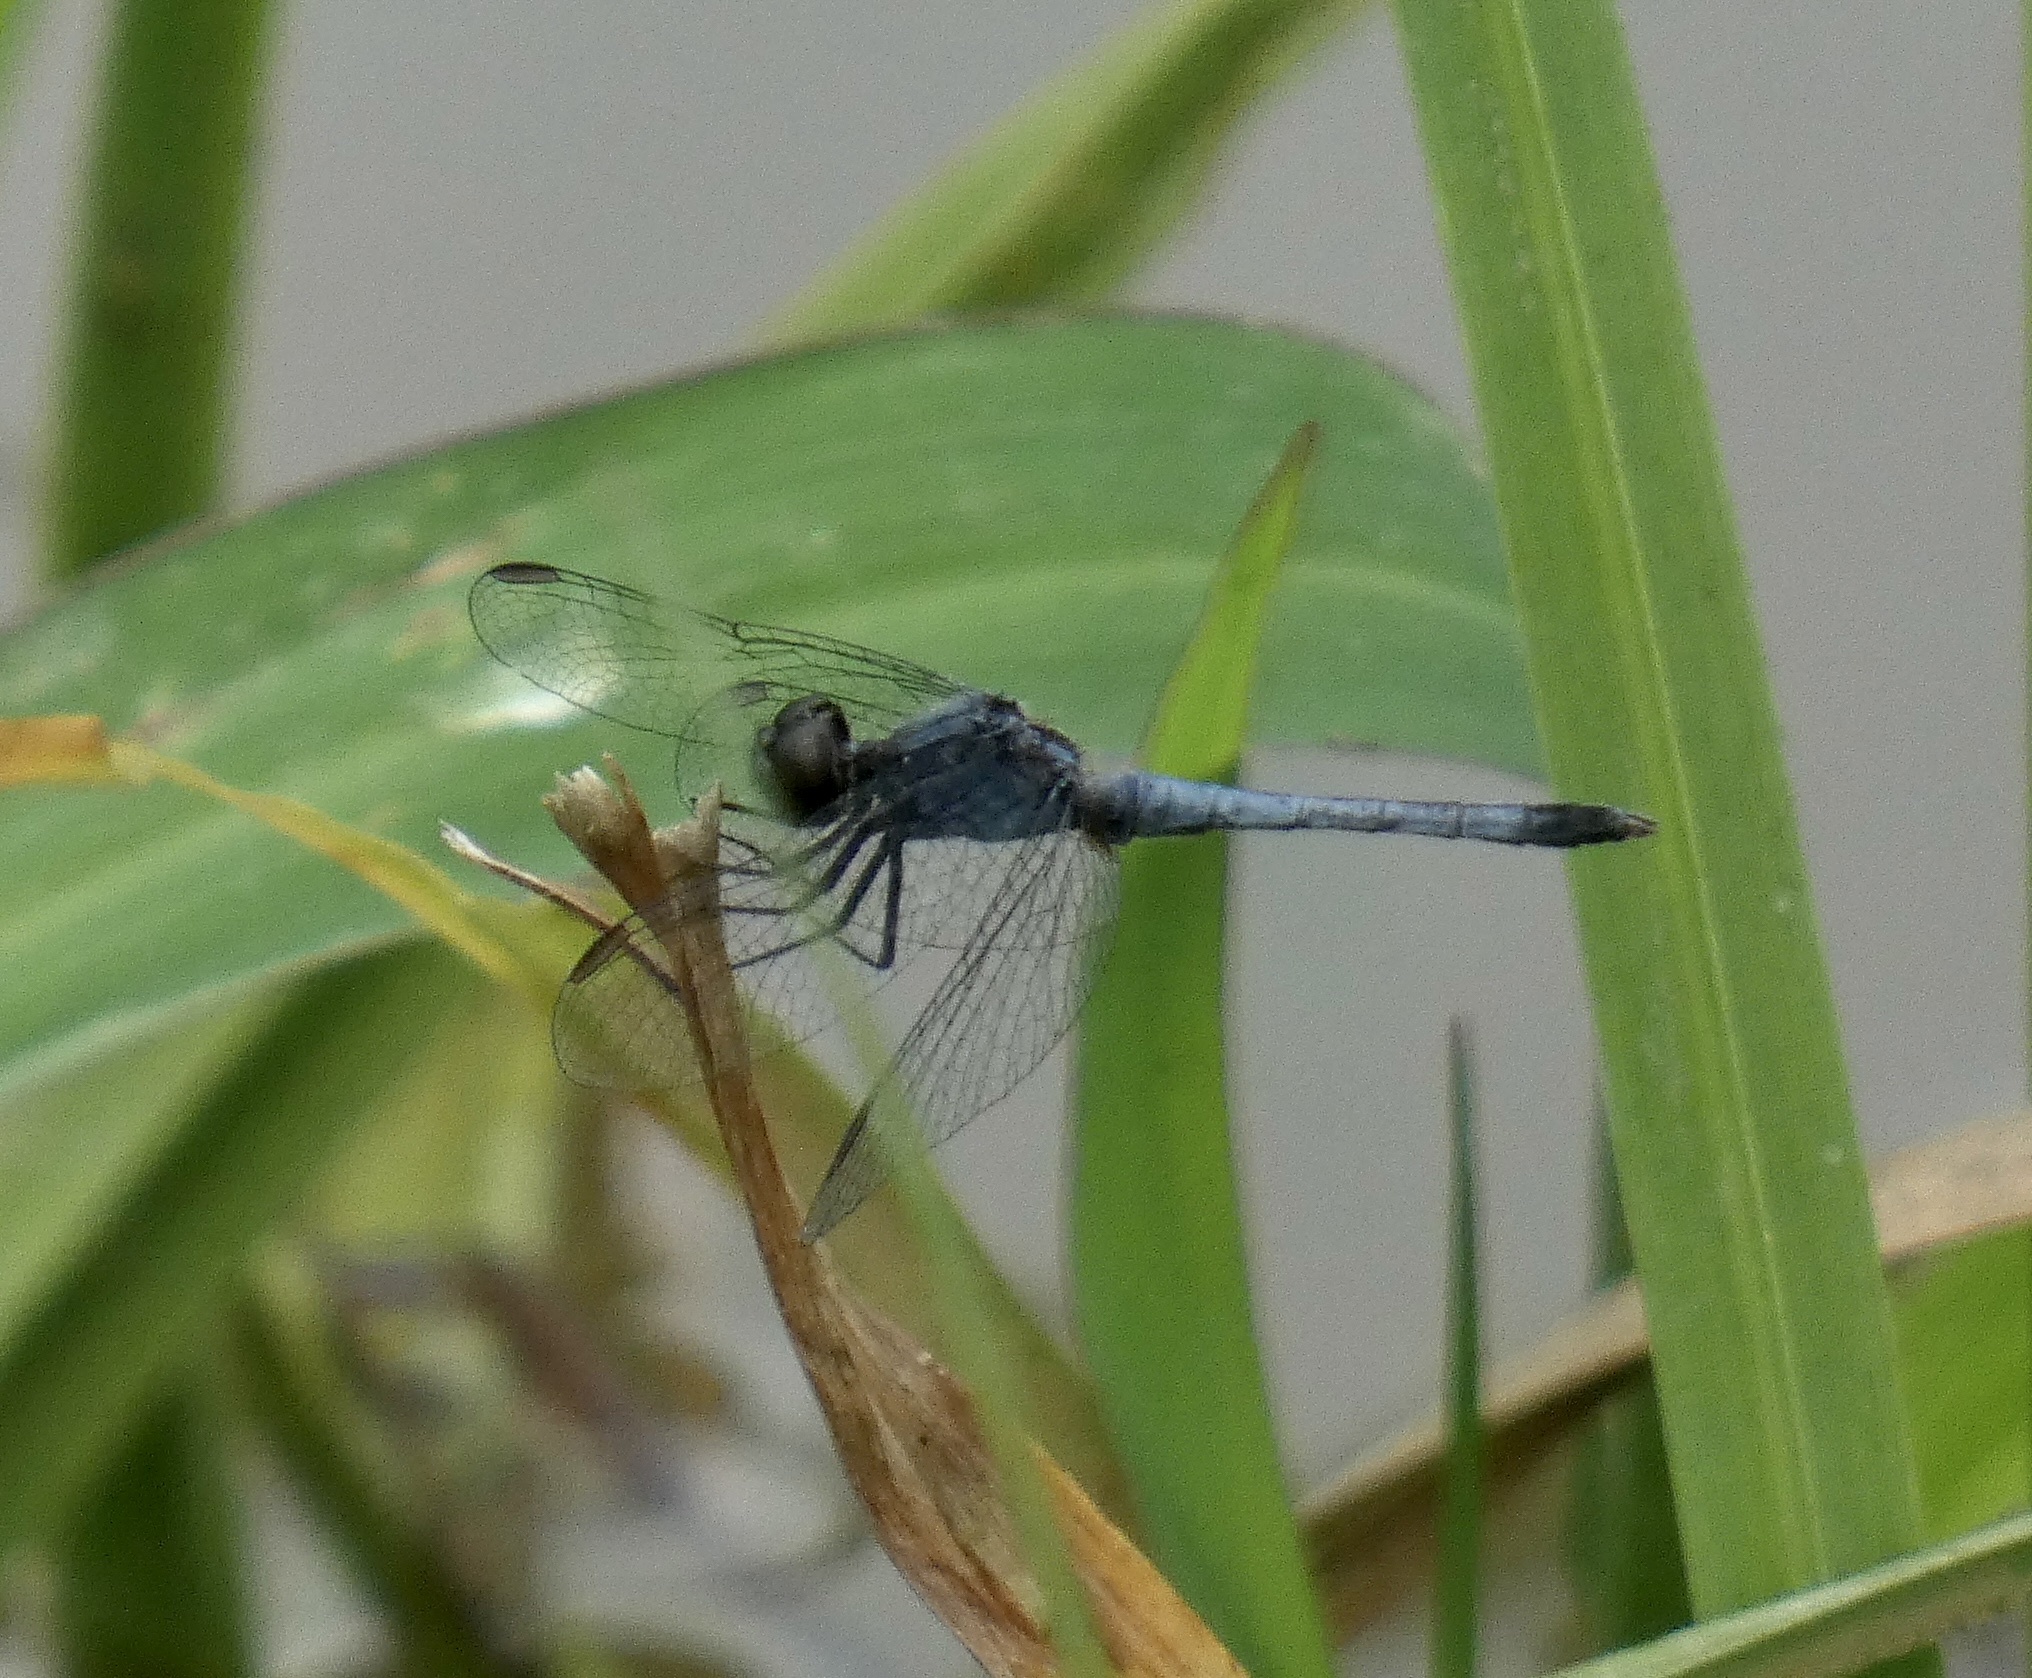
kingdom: Animalia
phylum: Arthropoda
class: Insecta
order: Odonata
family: Libellulidae
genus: Erythrodiplax
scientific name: Erythrodiplax paraguayensis
